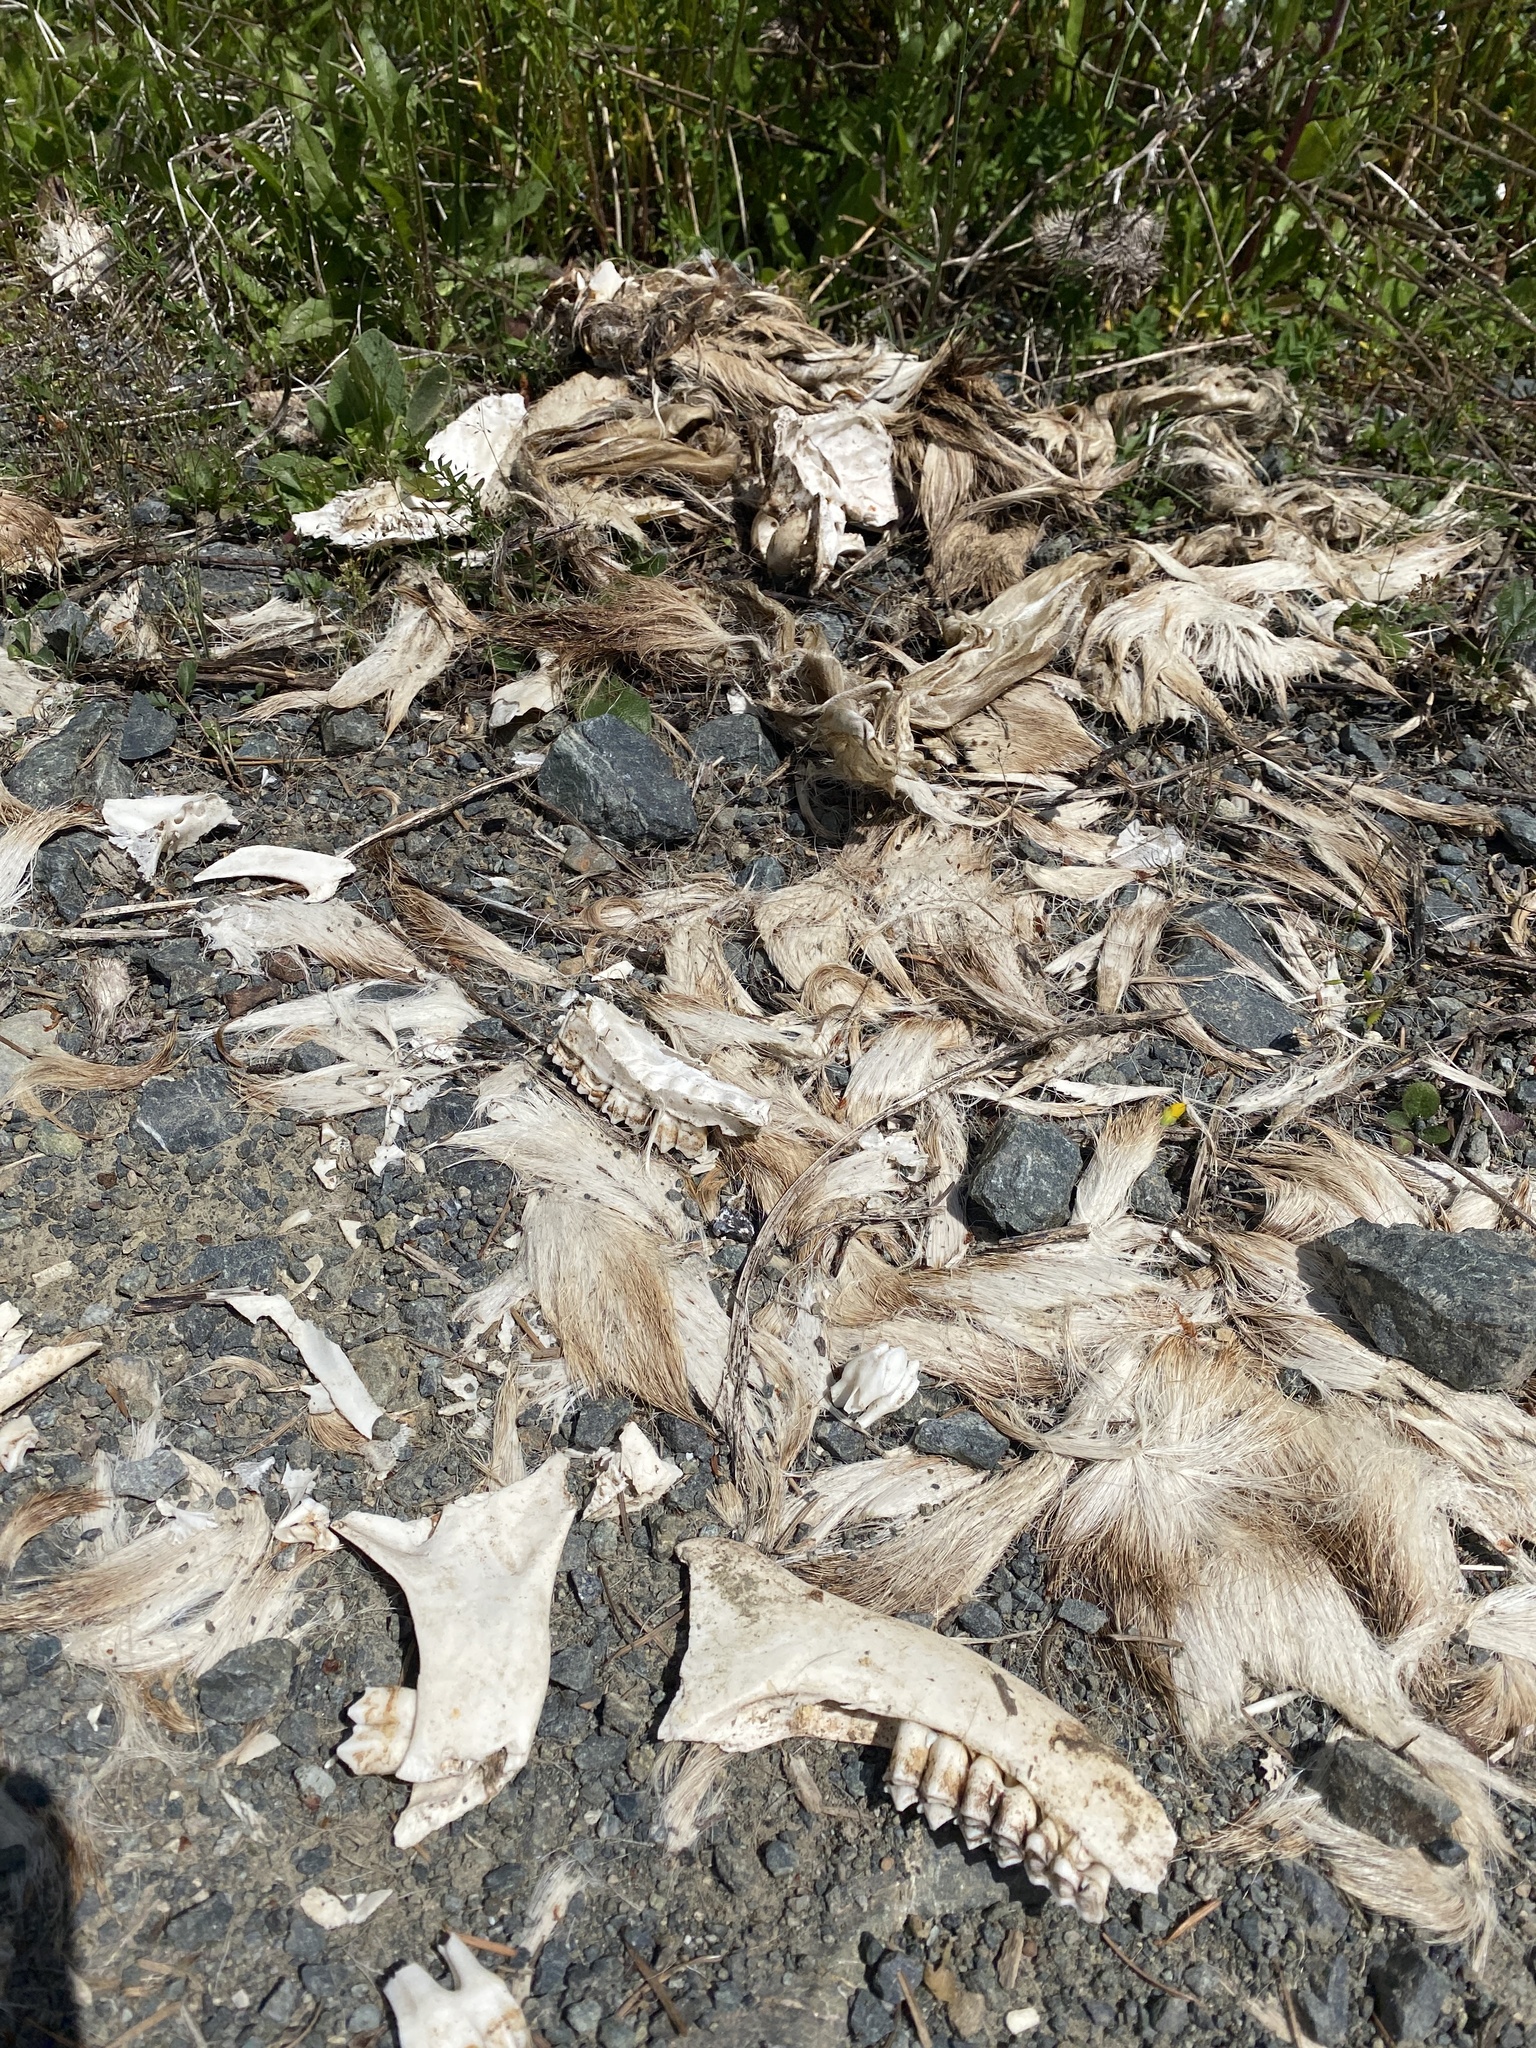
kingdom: Animalia
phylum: Chordata
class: Mammalia
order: Artiodactyla
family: Cervidae
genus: Odocoileus
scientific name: Odocoileus hemionus
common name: Mule deer
